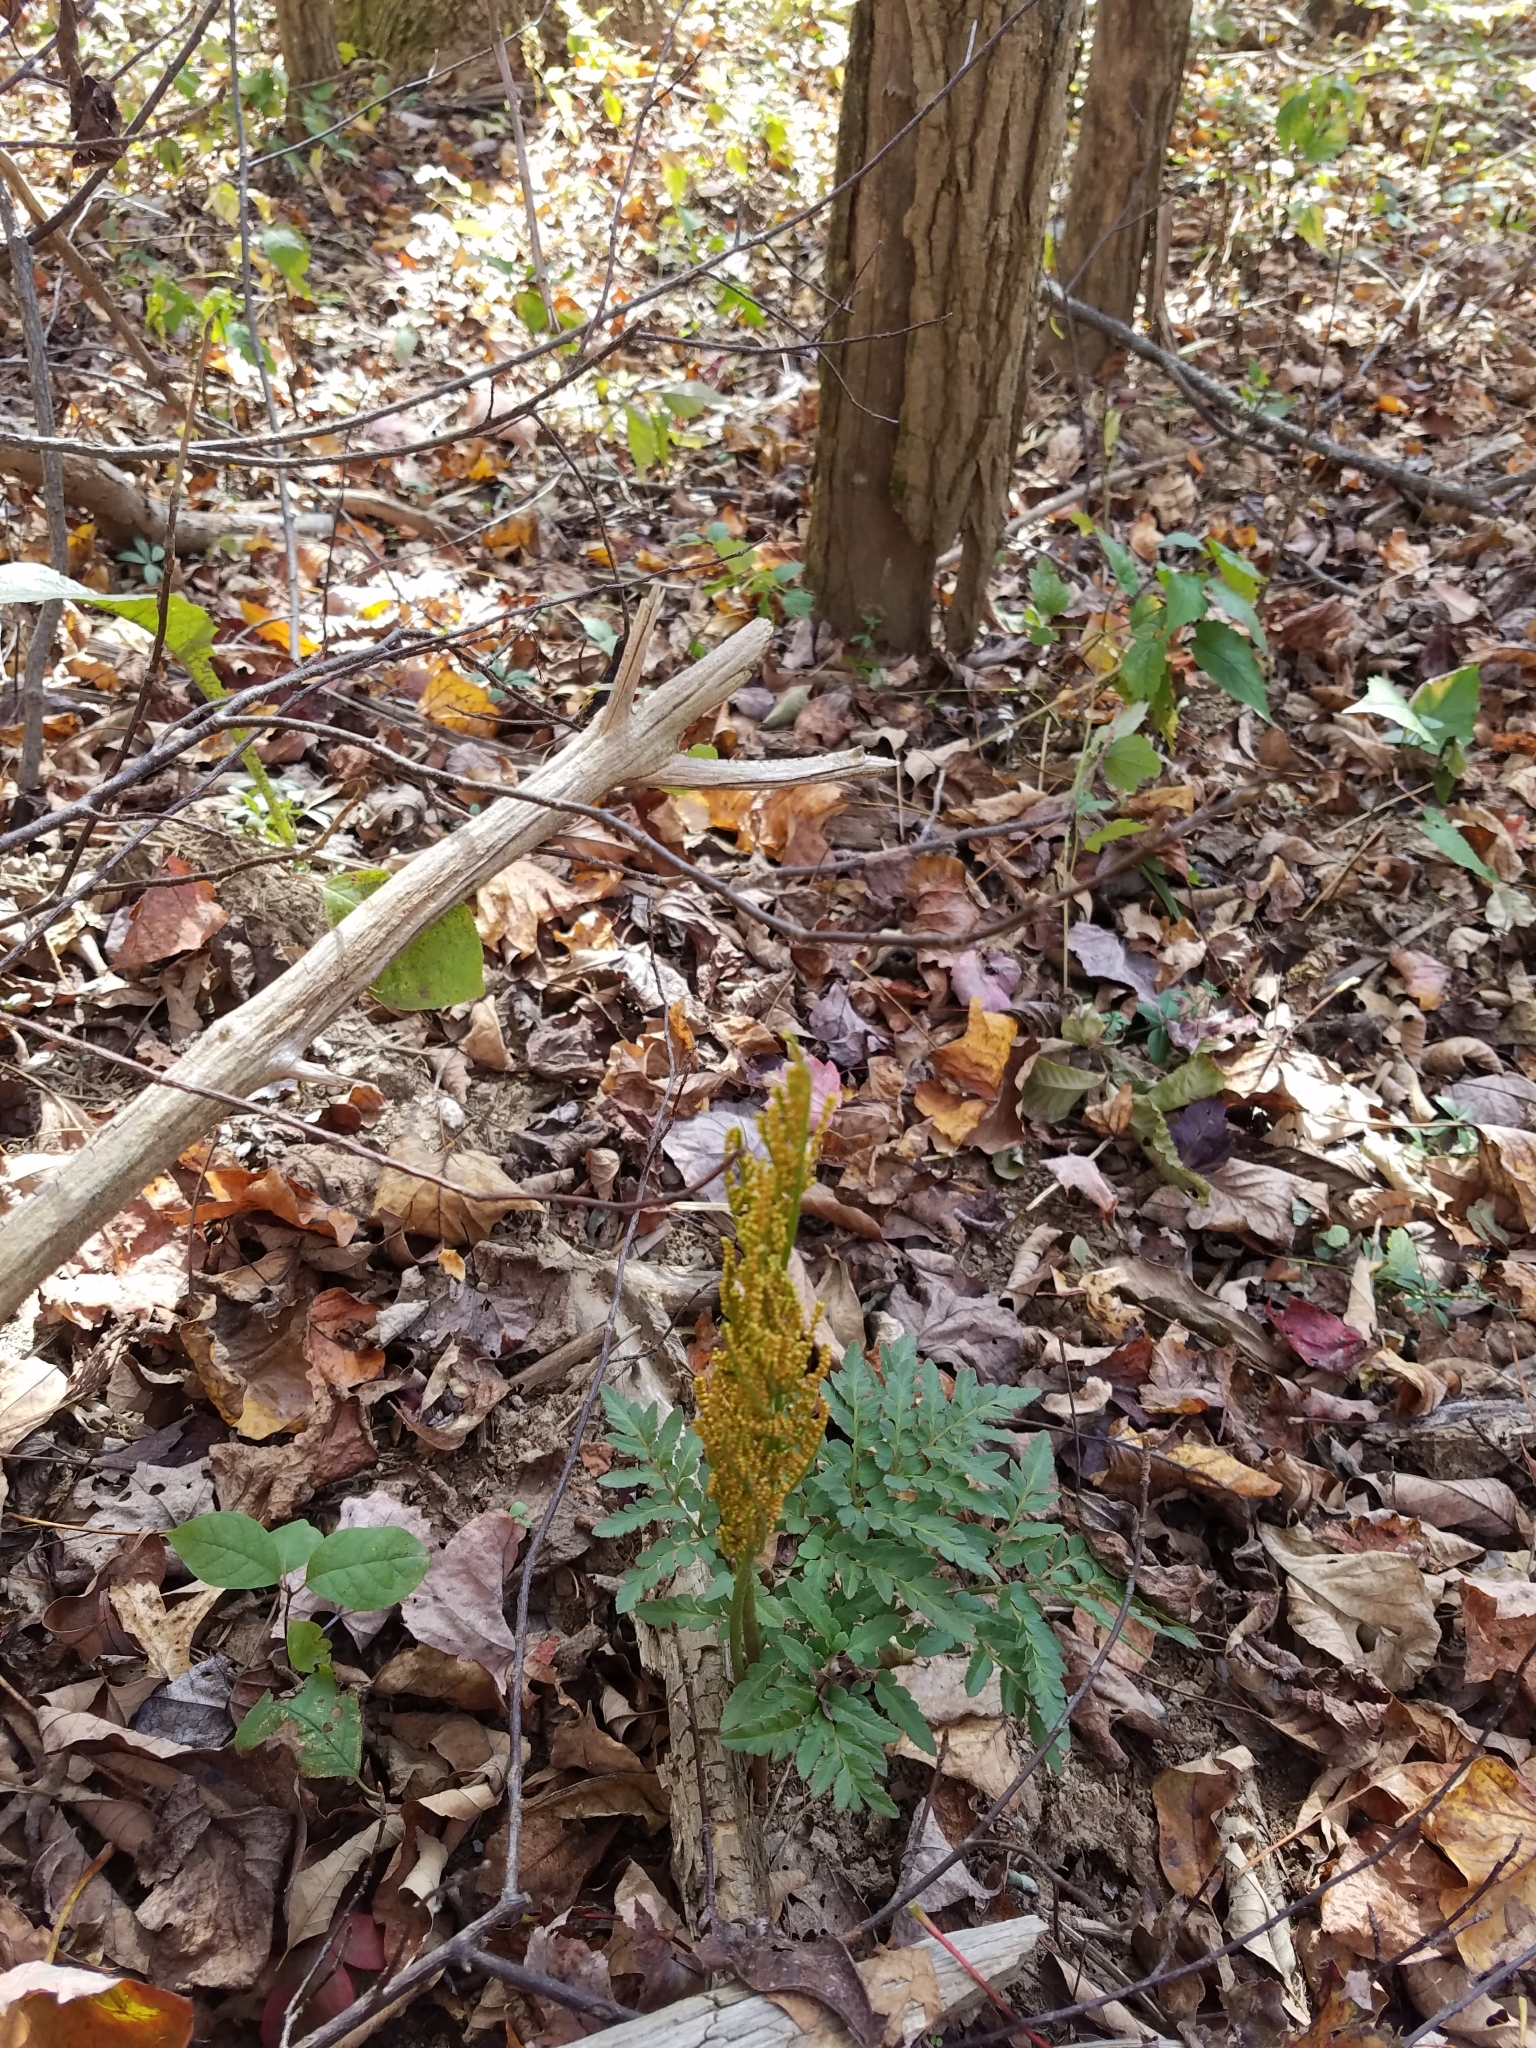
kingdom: Plantae
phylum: Tracheophyta
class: Polypodiopsida
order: Ophioglossales
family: Ophioglossaceae
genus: Sceptridium
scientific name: Sceptridium dissectum
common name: Cut-leaved grapefern
